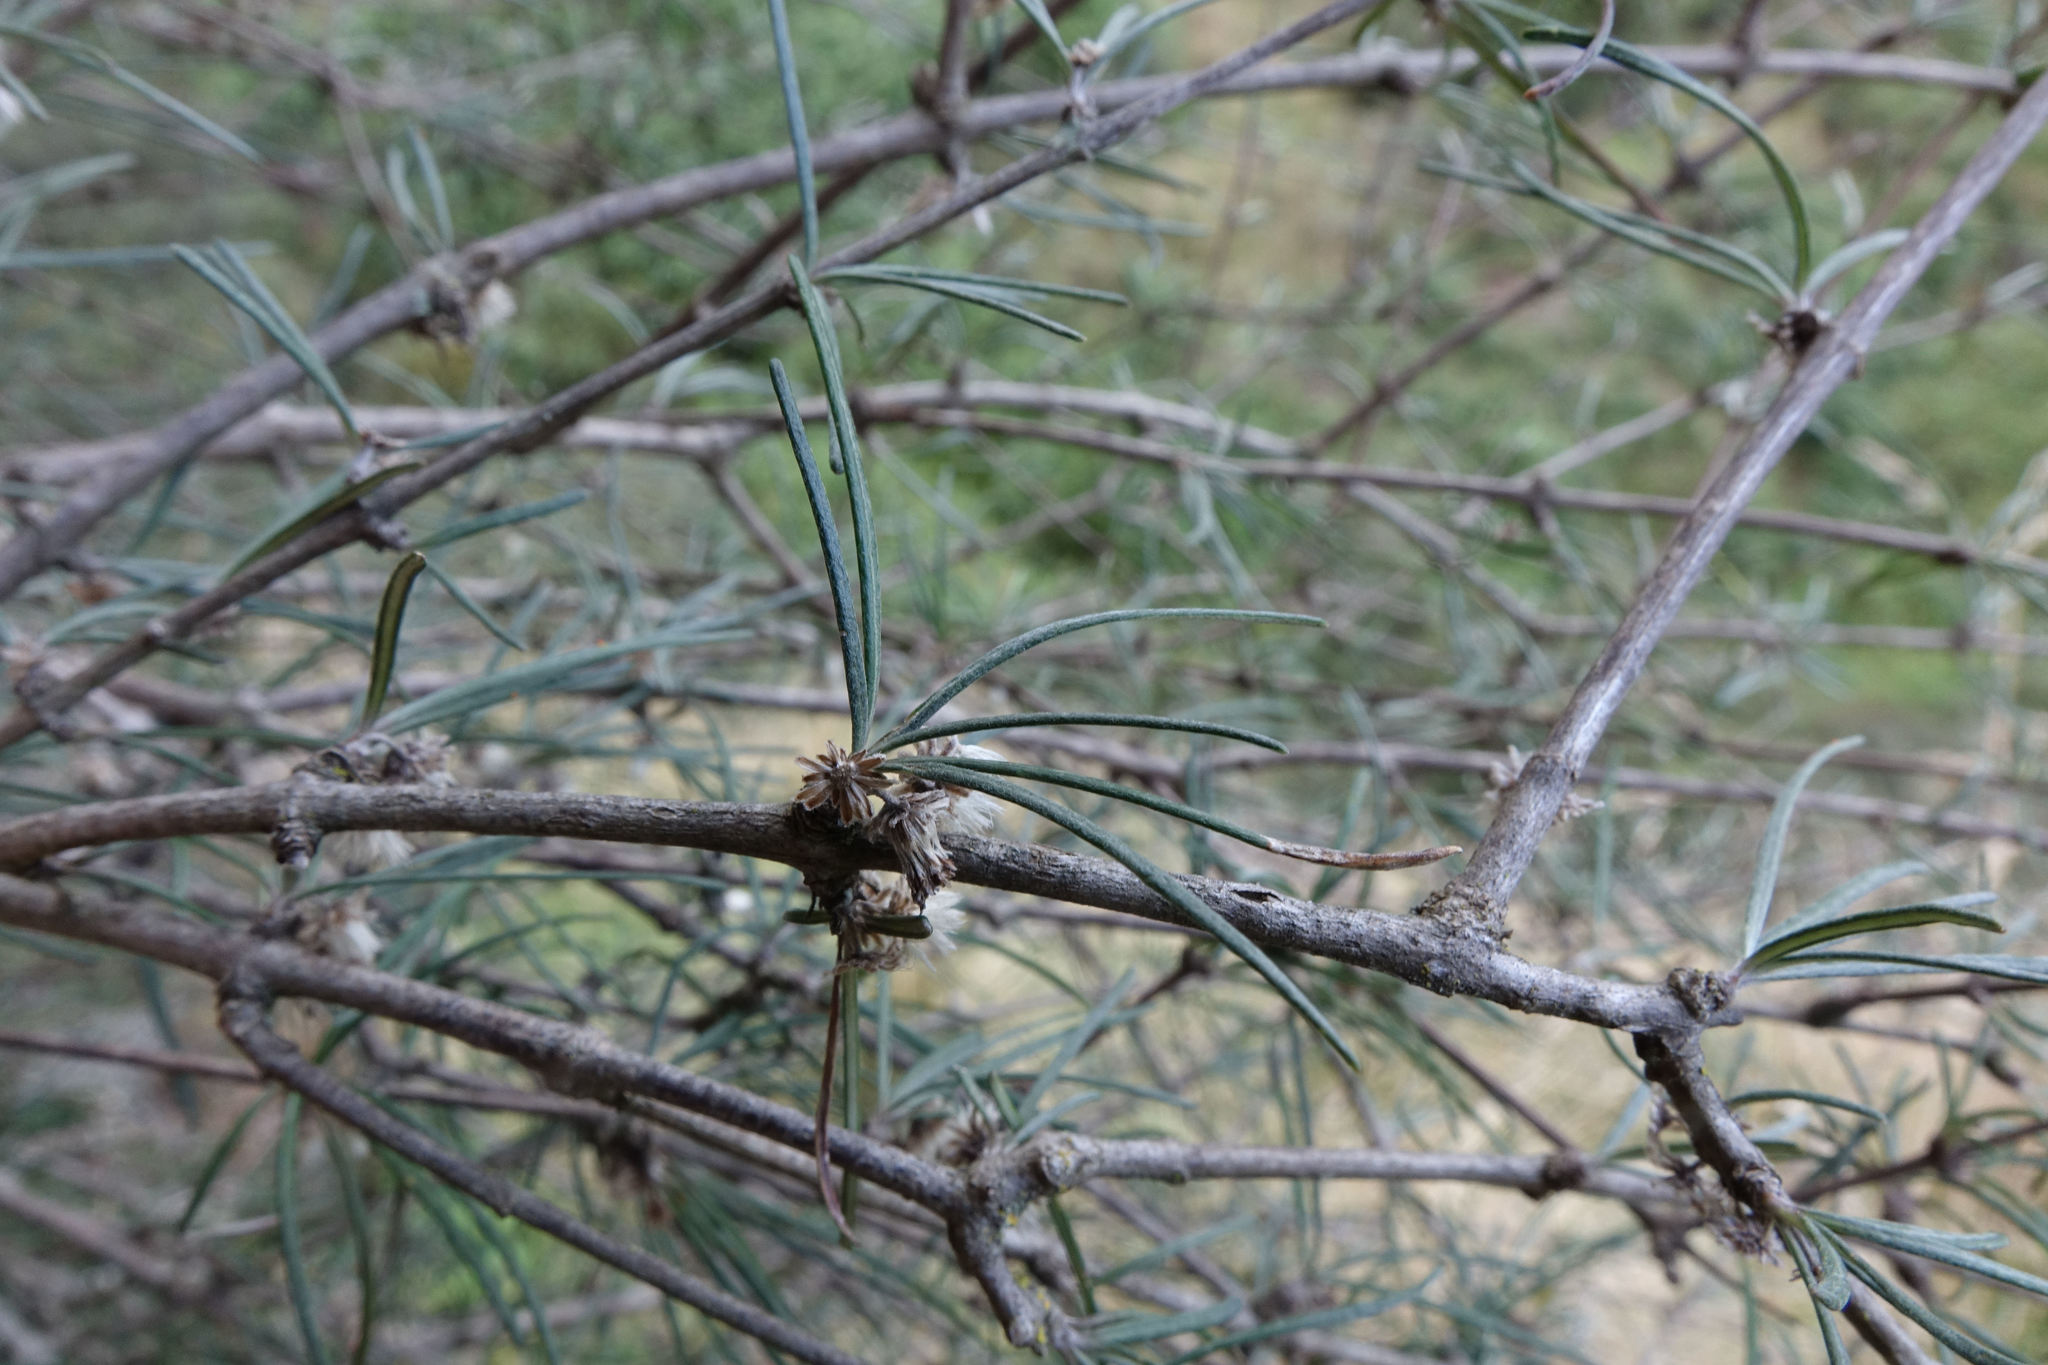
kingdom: Plantae
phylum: Tracheophyta
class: Magnoliopsida
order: Asterales
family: Asteraceae
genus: Olearia
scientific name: Olearia lineata
